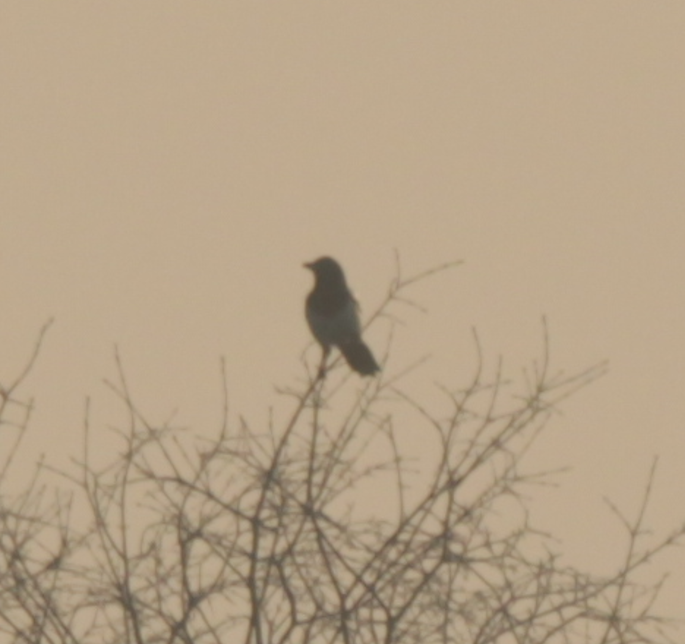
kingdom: Animalia
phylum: Chordata
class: Aves
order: Passeriformes
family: Corvidae
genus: Pica
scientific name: Pica pica
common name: Eurasian magpie
